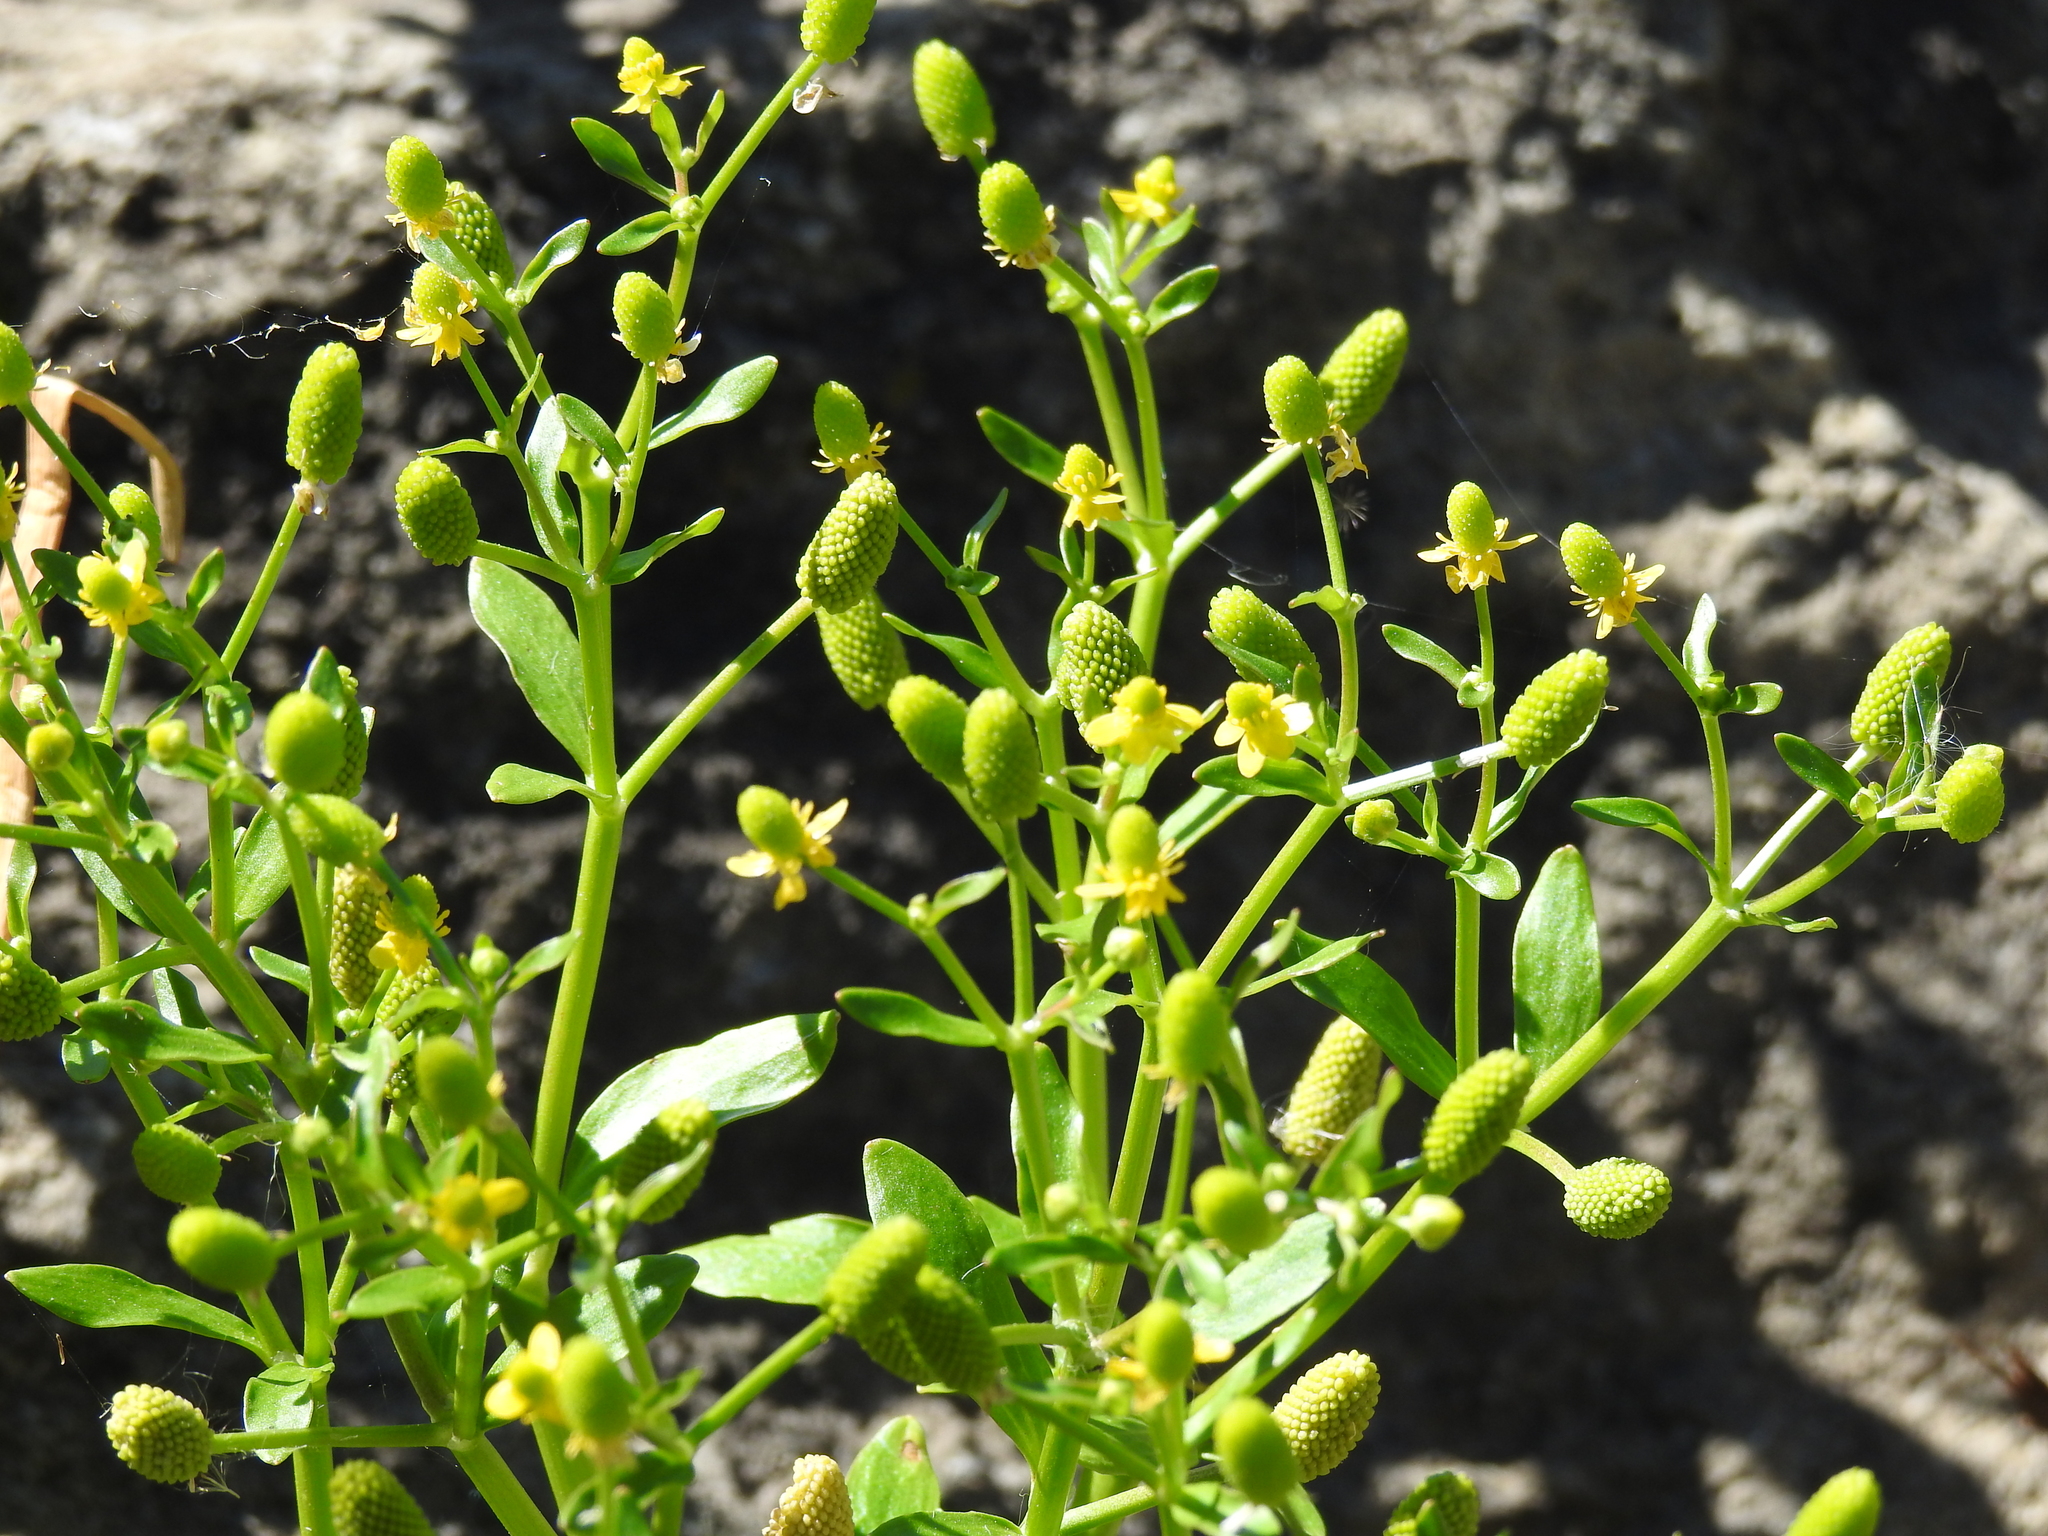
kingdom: Plantae
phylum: Tracheophyta
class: Magnoliopsida
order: Ranunculales
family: Ranunculaceae
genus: Ranunculus
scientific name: Ranunculus sceleratus
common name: Celery-leaved buttercup
